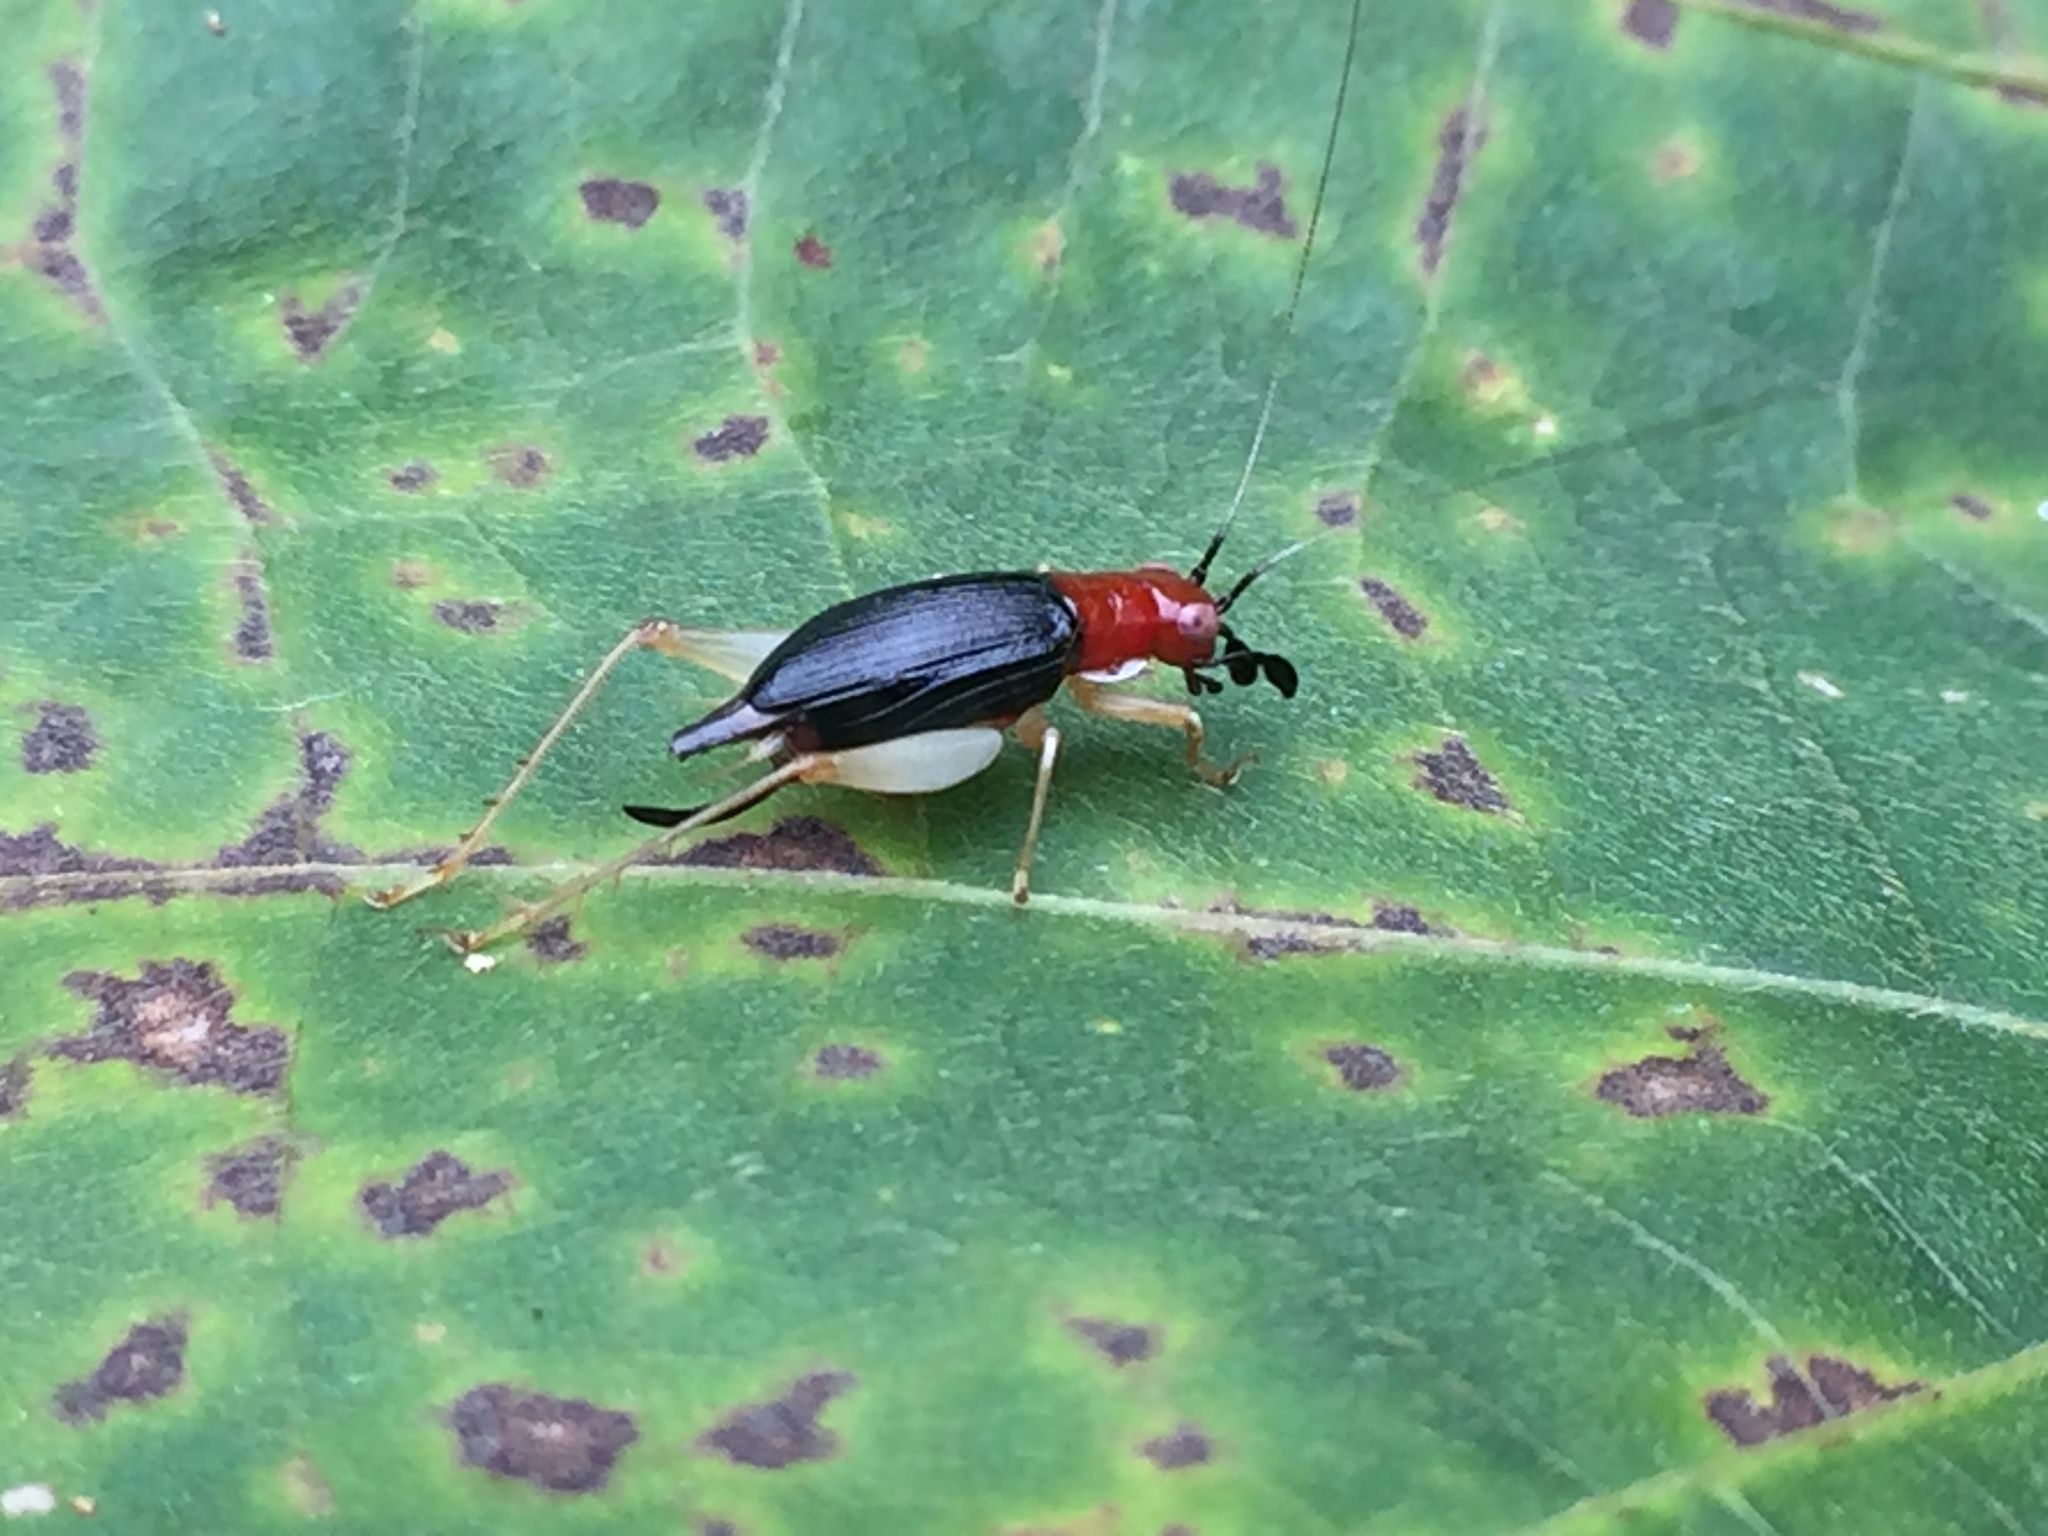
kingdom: Animalia
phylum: Arthropoda
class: Insecta
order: Orthoptera
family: Trigonidiidae
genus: Phyllopalpus
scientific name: Phyllopalpus pulchellus
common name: Handsome trig
